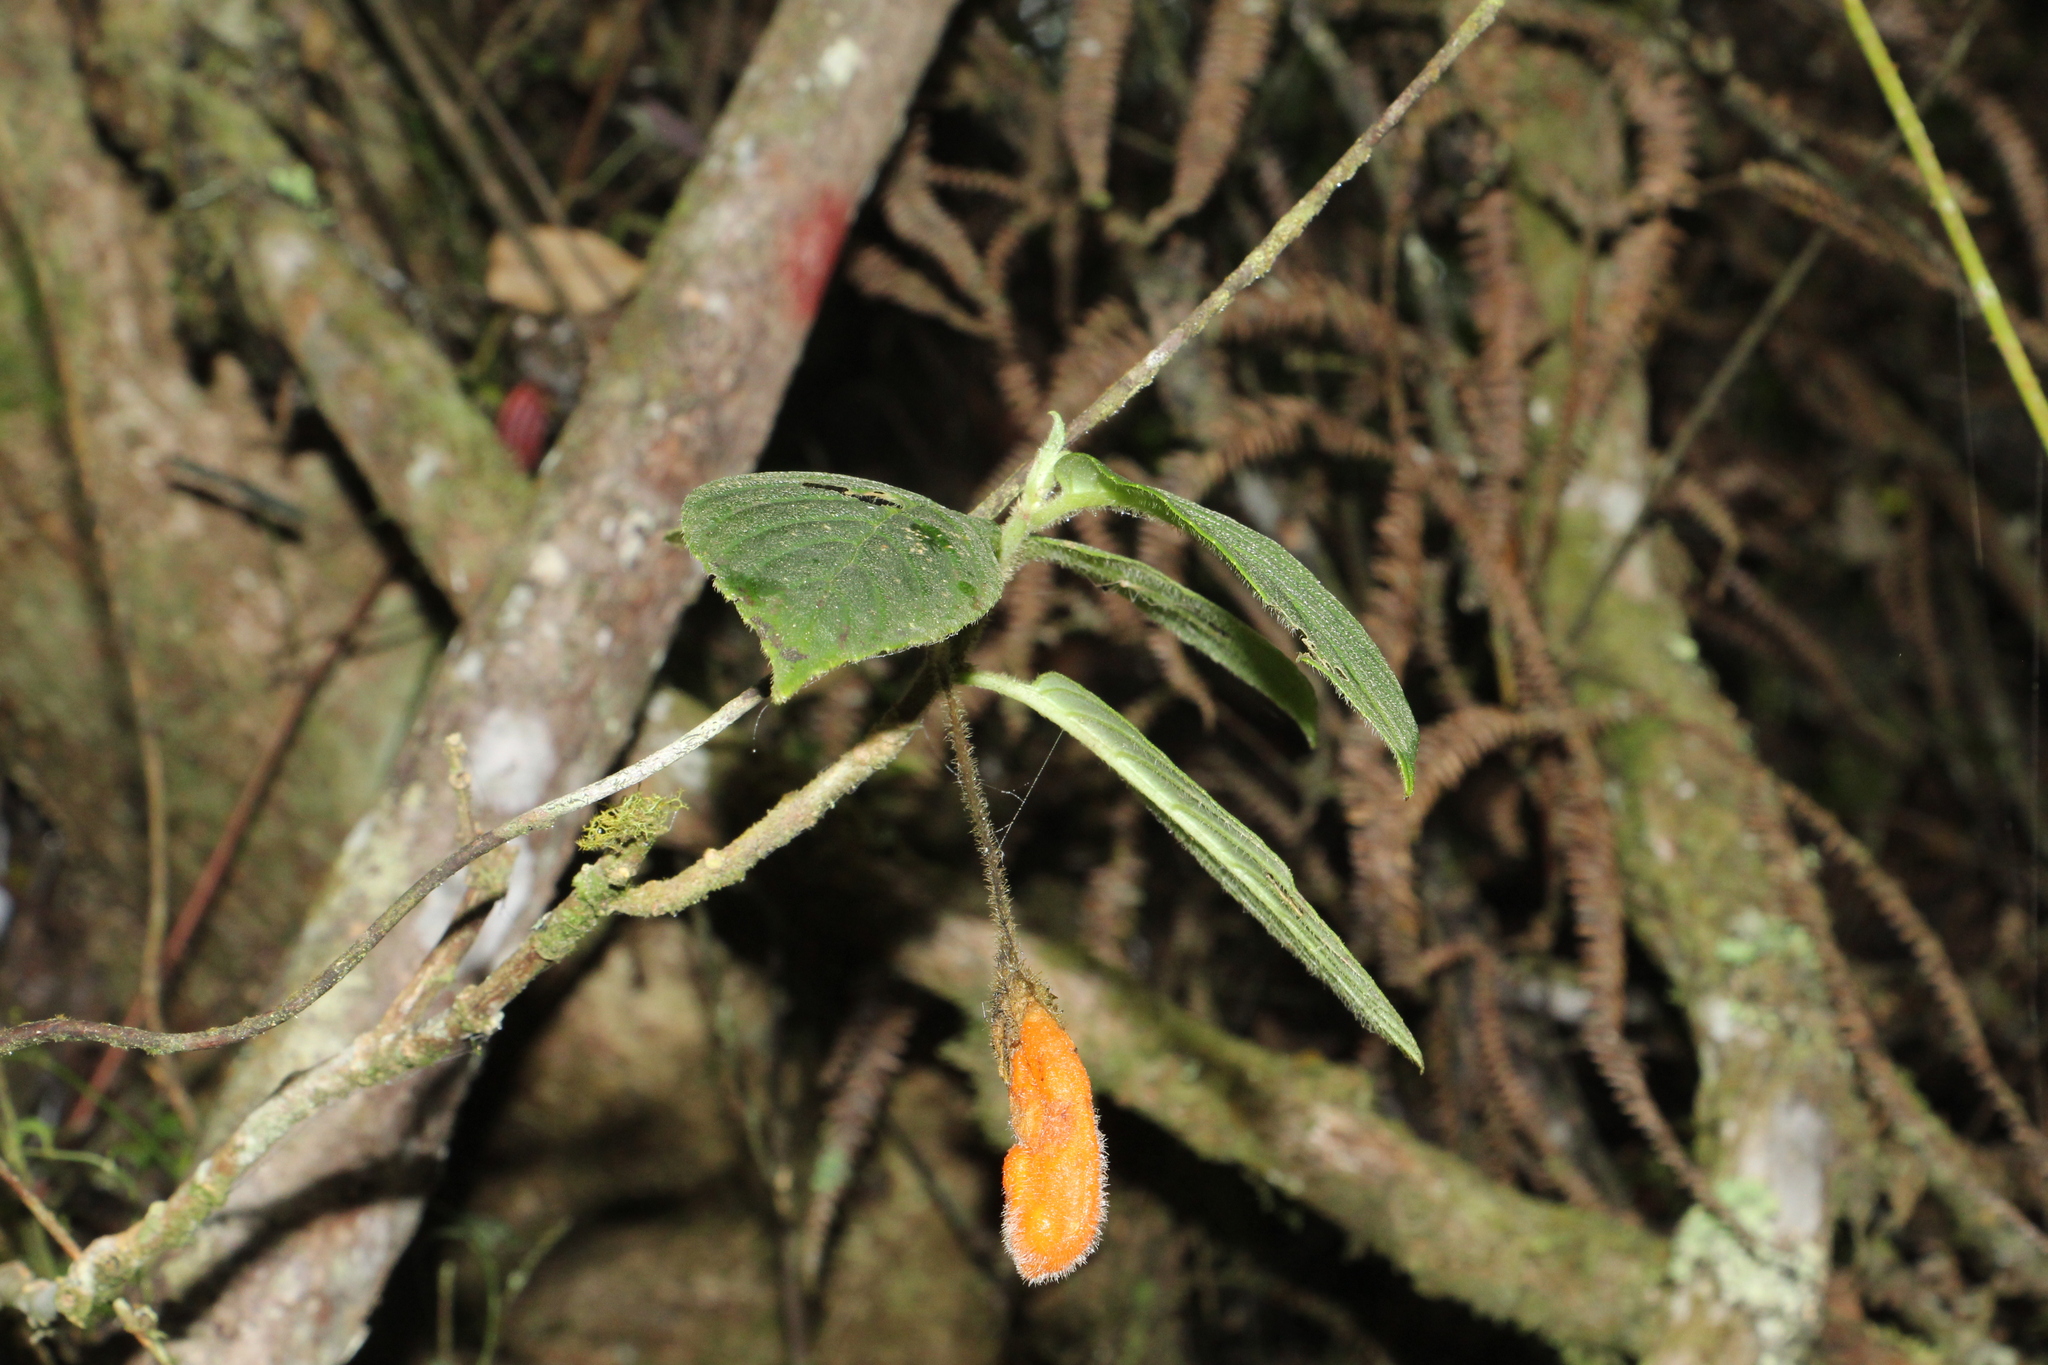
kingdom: Plantae
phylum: Tracheophyta
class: Magnoliopsida
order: Lamiales
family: Gesneriaceae
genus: Columnea
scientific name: Columnea strigosa
